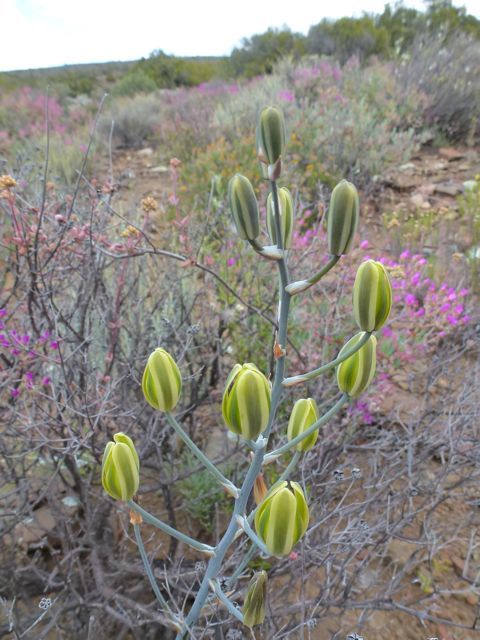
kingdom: Plantae
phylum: Tracheophyta
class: Magnoliopsida
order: Sapindales
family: Rutaceae
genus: Agathosma
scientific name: Agathosma
